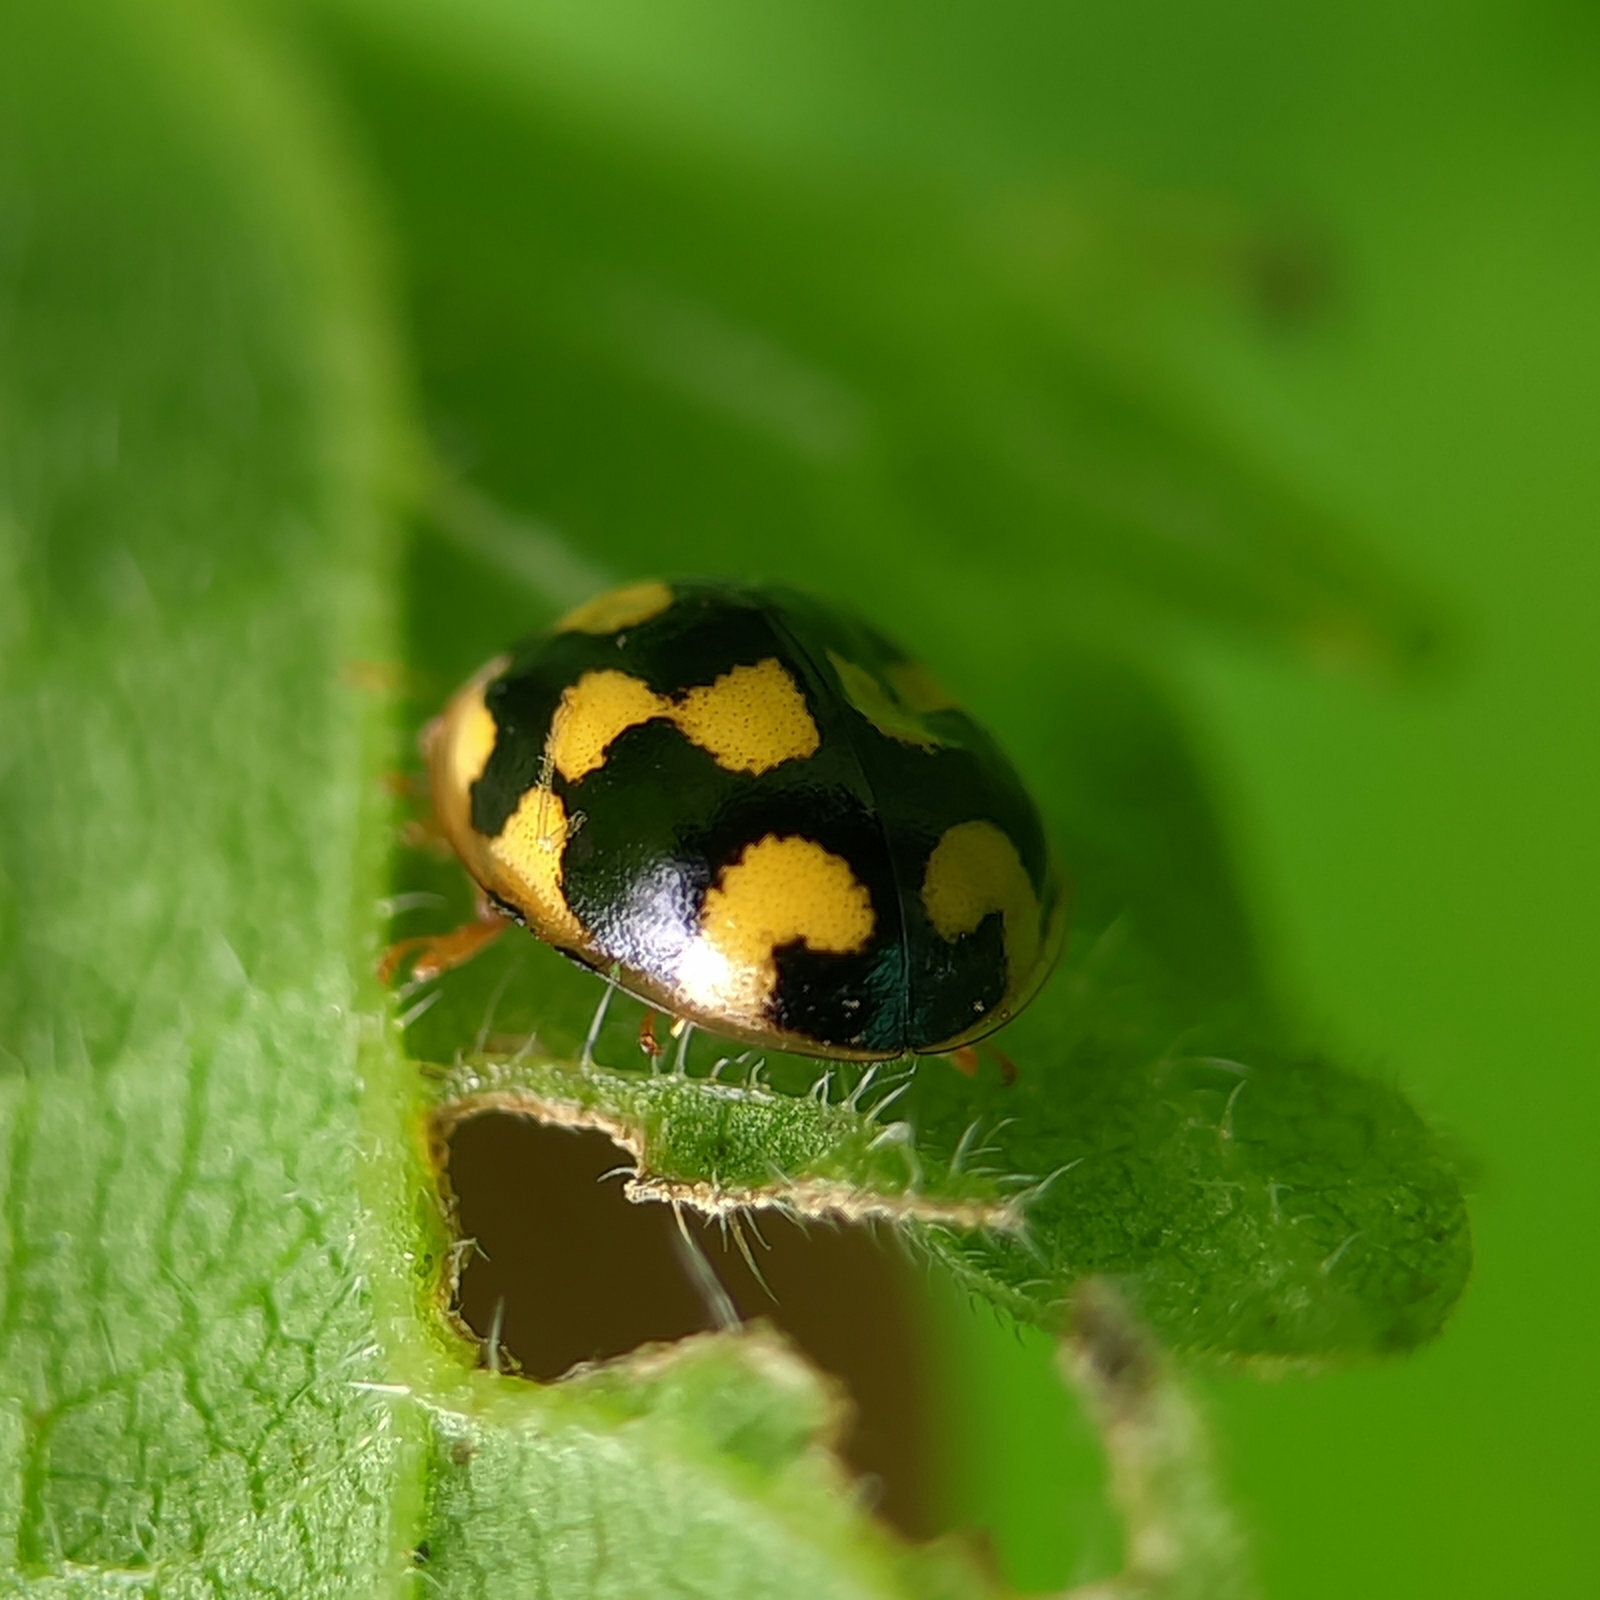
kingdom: Animalia
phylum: Arthropoda
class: Insecta
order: Coleoptera
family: Coccinellidae
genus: Propylaea
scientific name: Propylaea quatuordecimpunctata
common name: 14-spotted ladybird beetle
